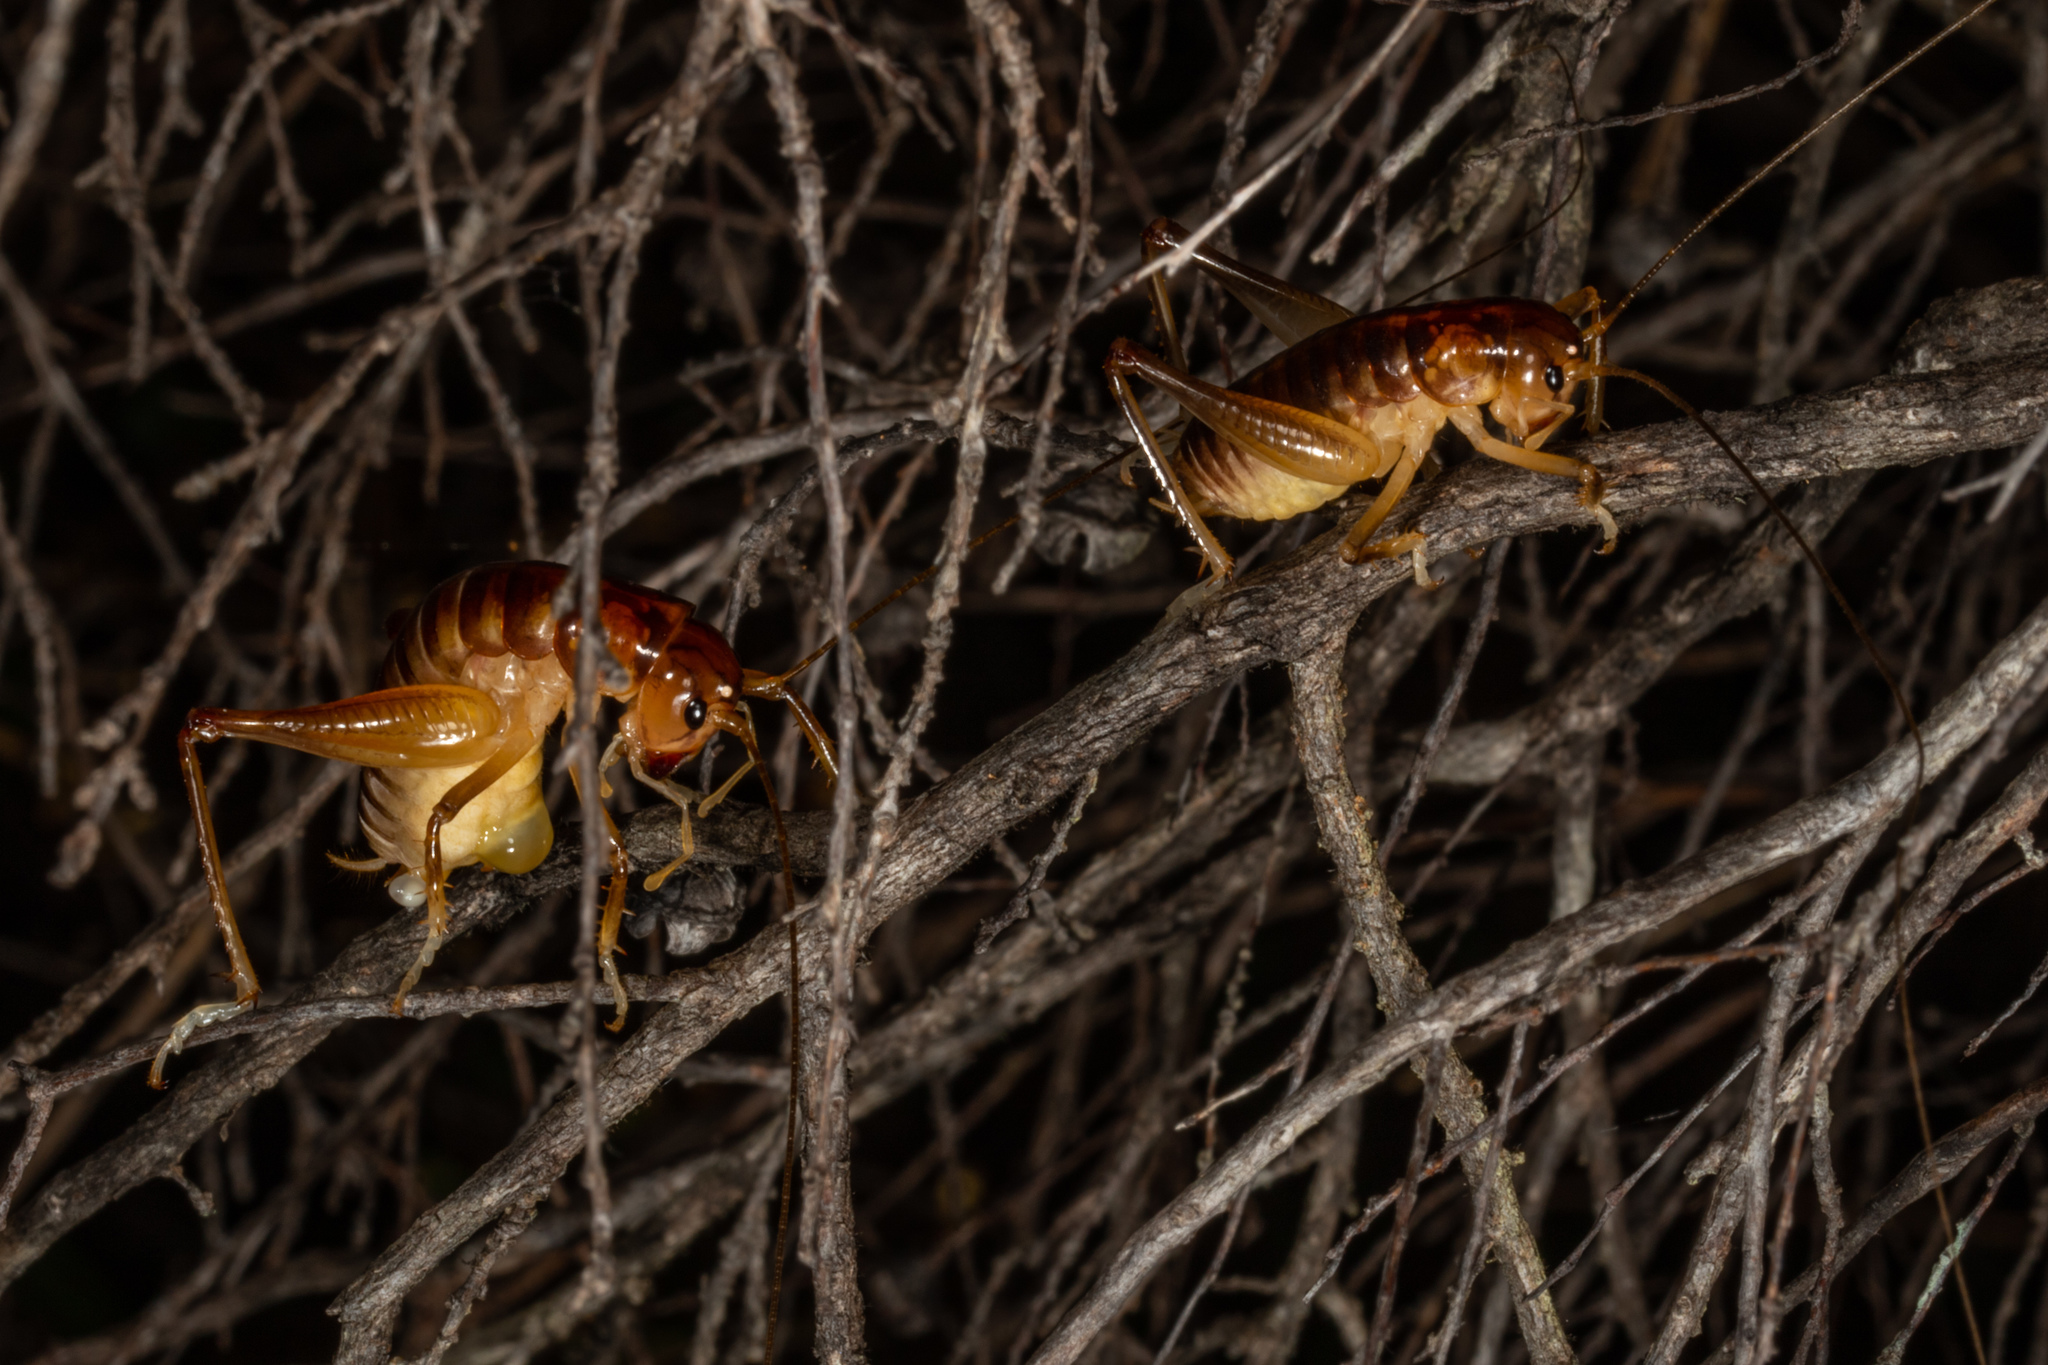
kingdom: Animalia
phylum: Arthropoda
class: Insecta
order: Orthoptera
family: Anostostomatidae
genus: Hemiandrus
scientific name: Hemiandrus pallitarsis
